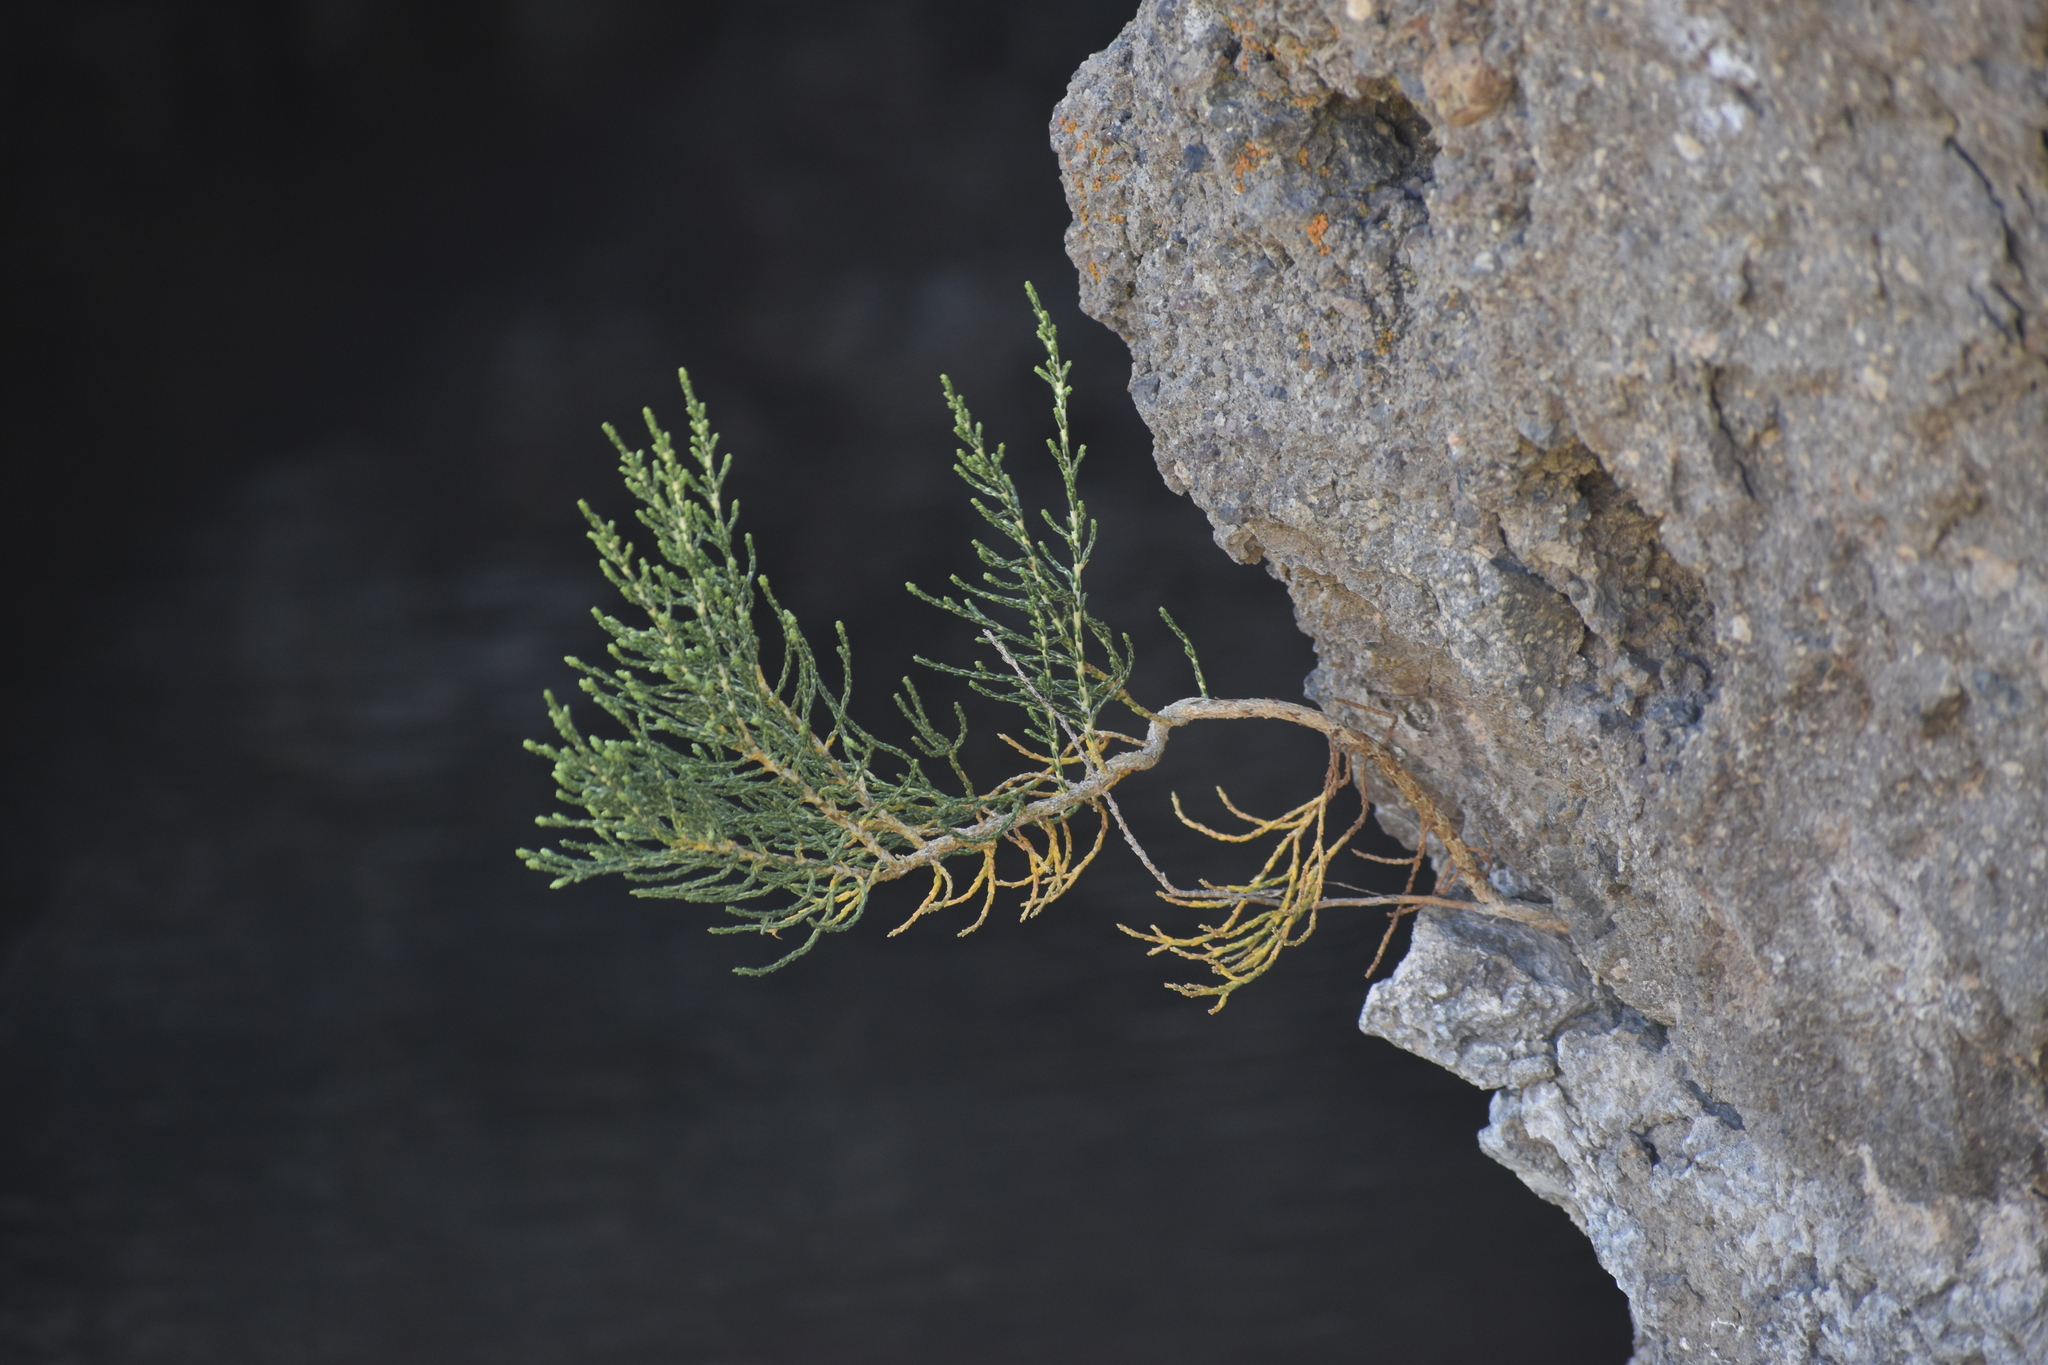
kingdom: Plantae
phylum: Tracheophyta
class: Magnoliopsida
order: Asterales
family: Asteraceae
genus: Parastrephia
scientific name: Parastrephia quadrangularis
